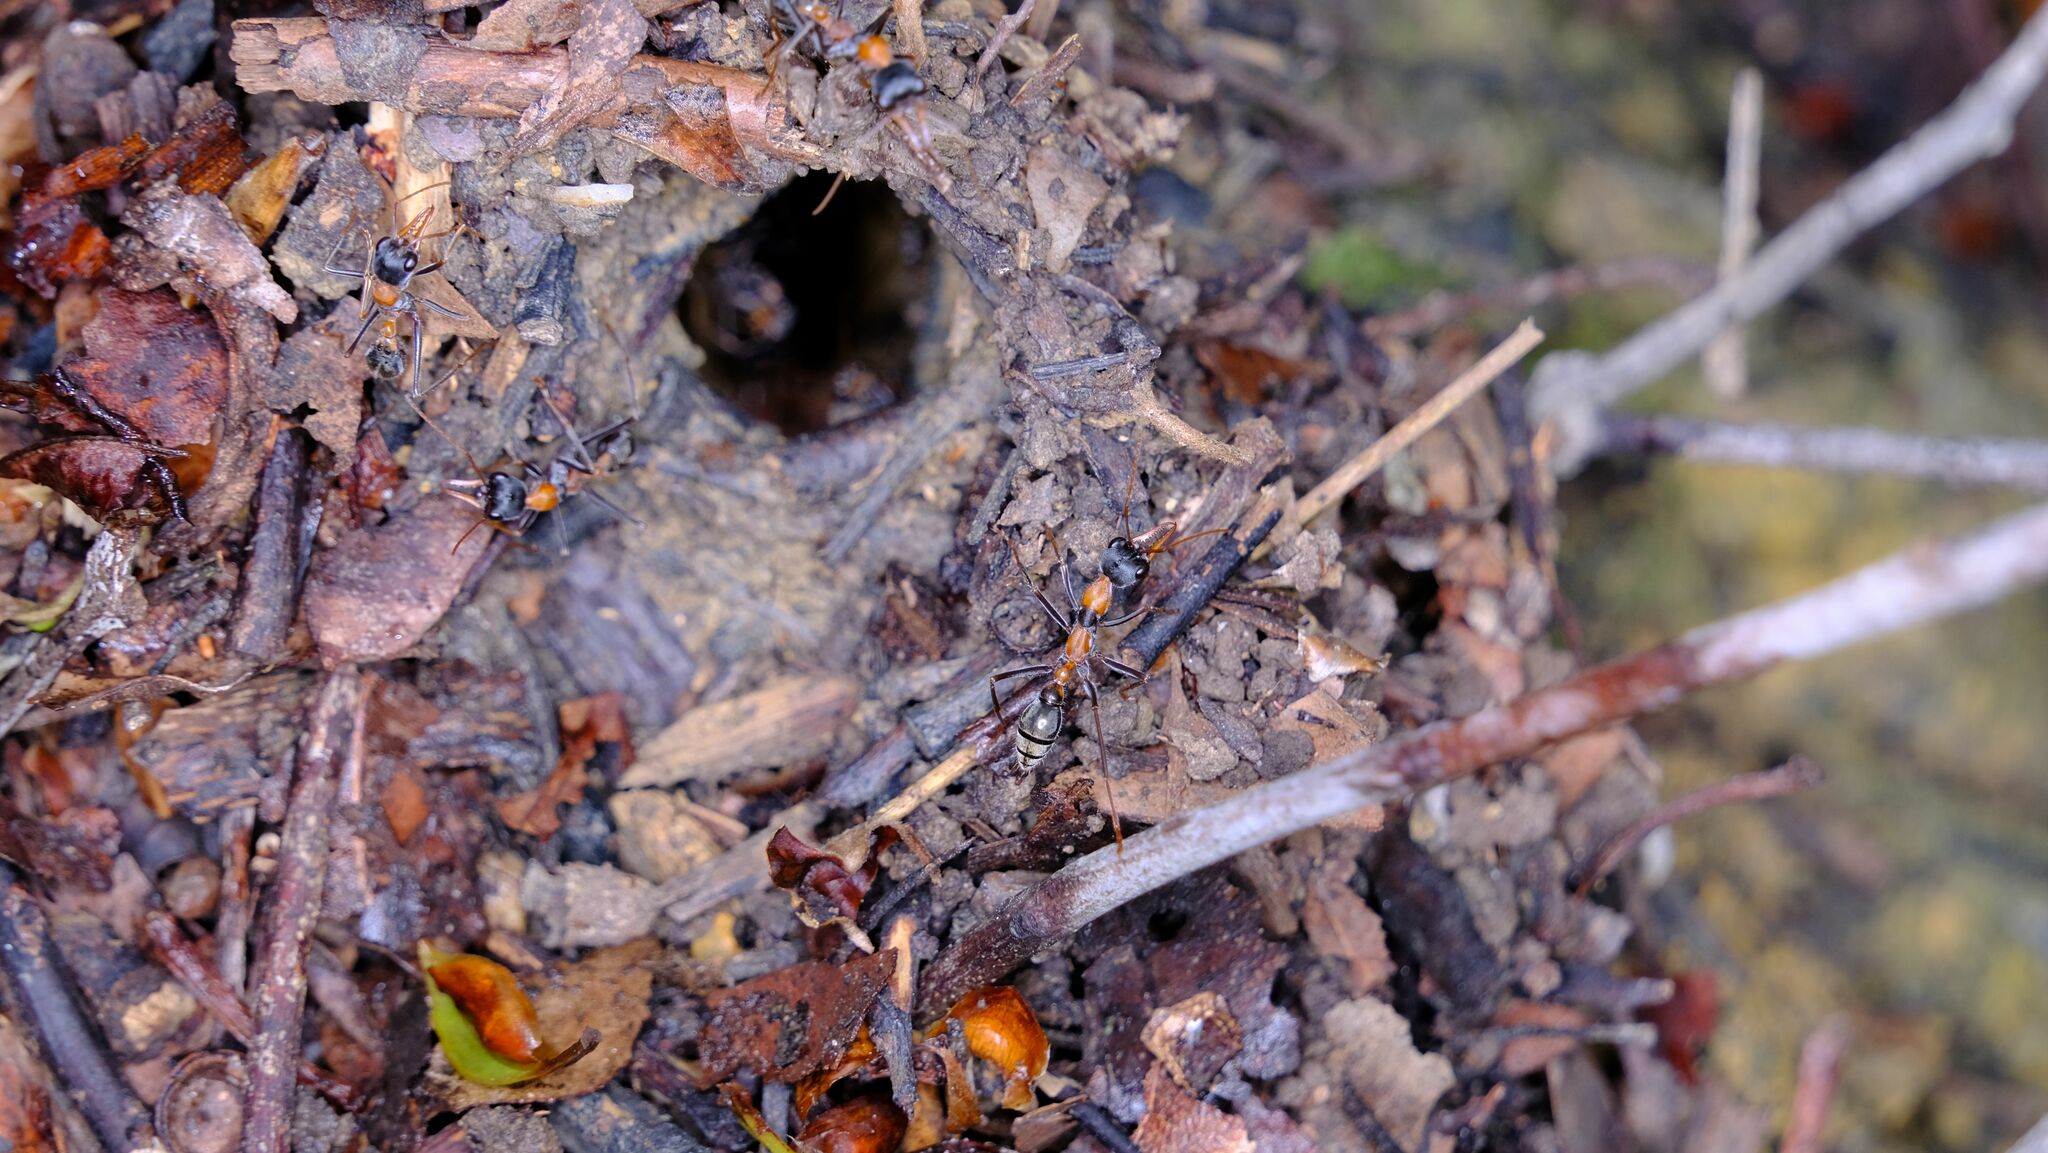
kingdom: Animalia
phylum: Arthropoda
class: Insecta
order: Hymenoptera
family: Formicidae
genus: Myrmecia
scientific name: Myrmecia nigrocincta
